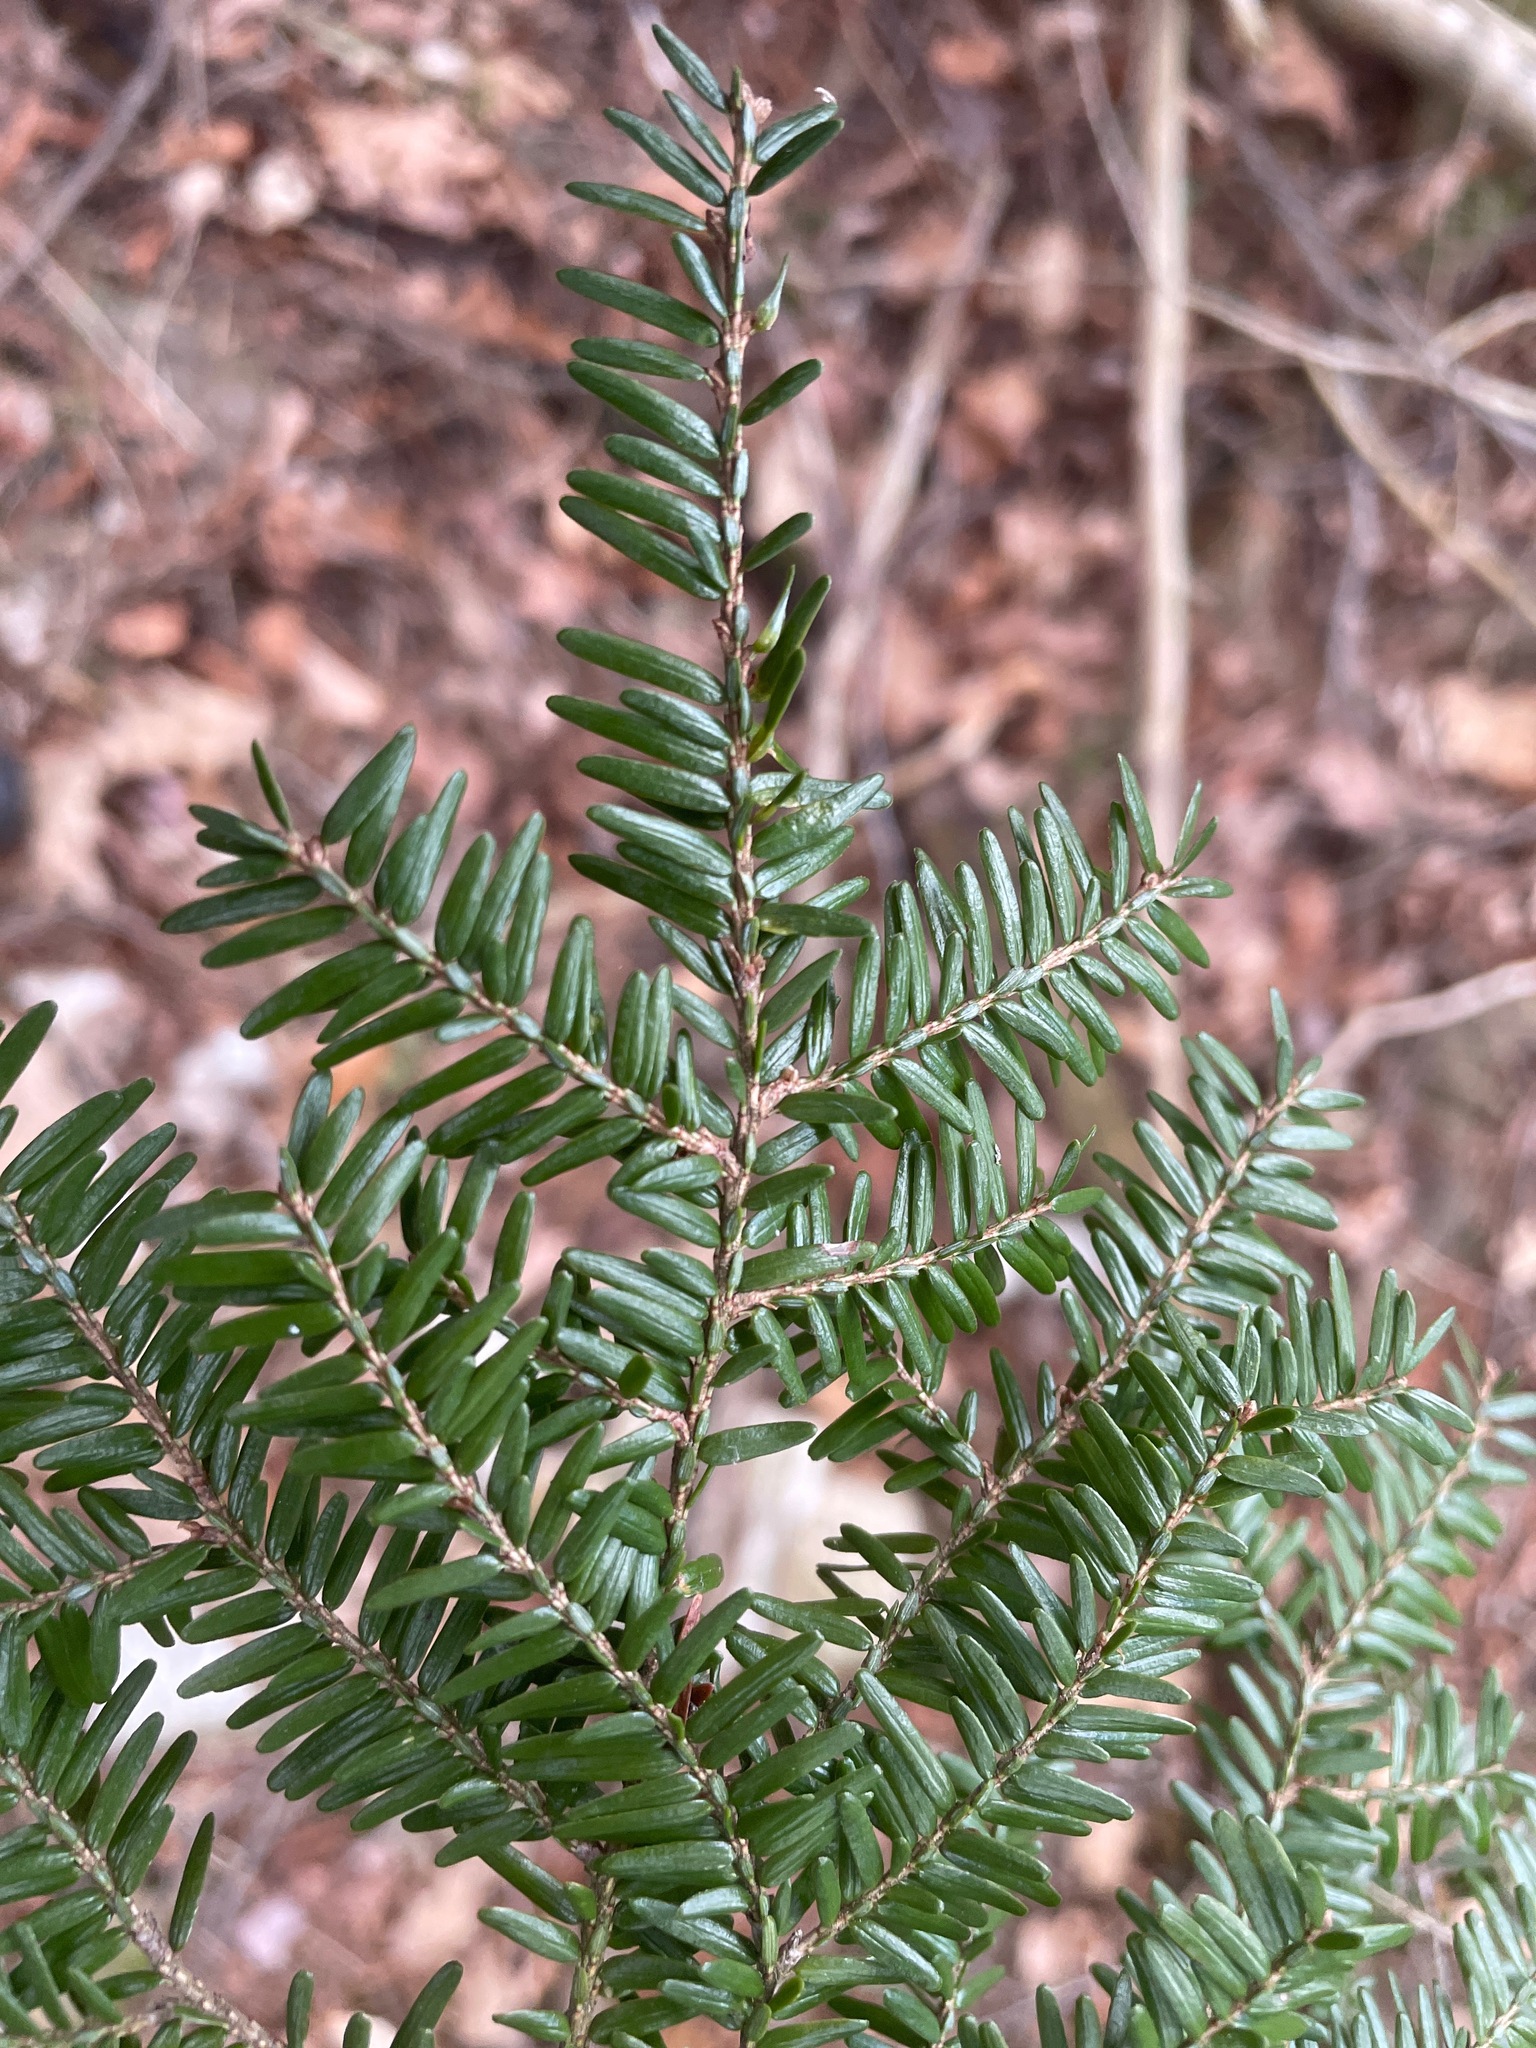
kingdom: Plantae
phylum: Tracheophyta
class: Pinopsida
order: Pinales
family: Pinaceae
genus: Tsuga
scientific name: Tsuga canadensis
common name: Eastern hemlock
